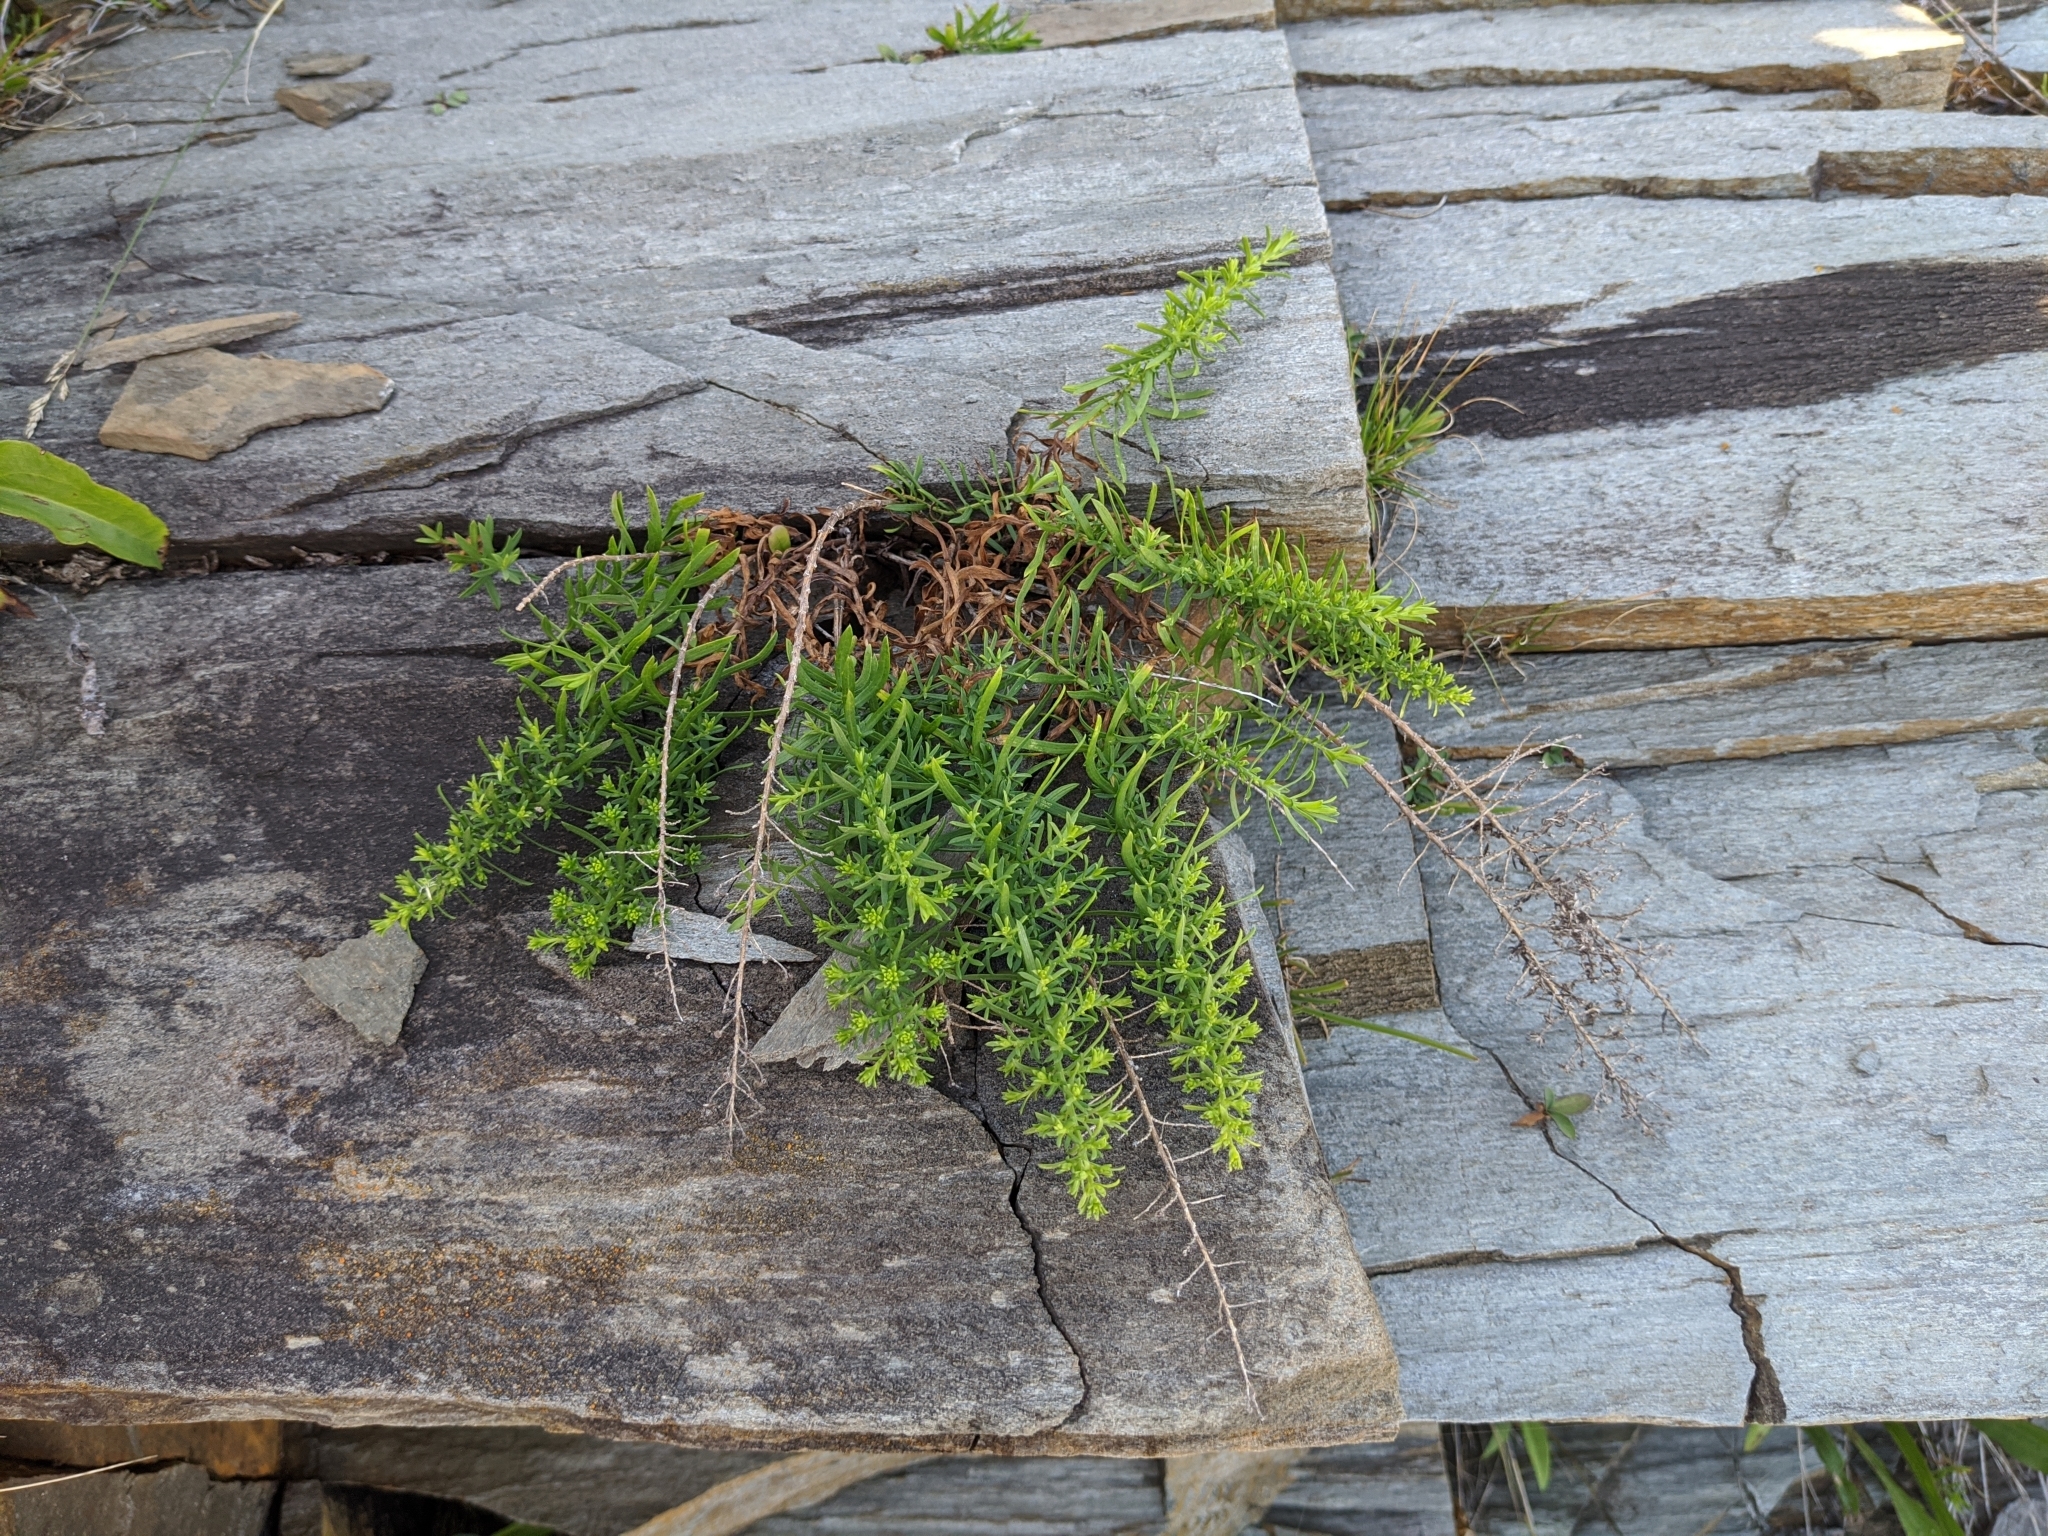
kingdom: Plantae
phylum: Tracheophyta
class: Magnoliopsida
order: Asterales
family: Asteraceae
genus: Symphyotrichum
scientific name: Symphyotrichum ericoides
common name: Heath aster
